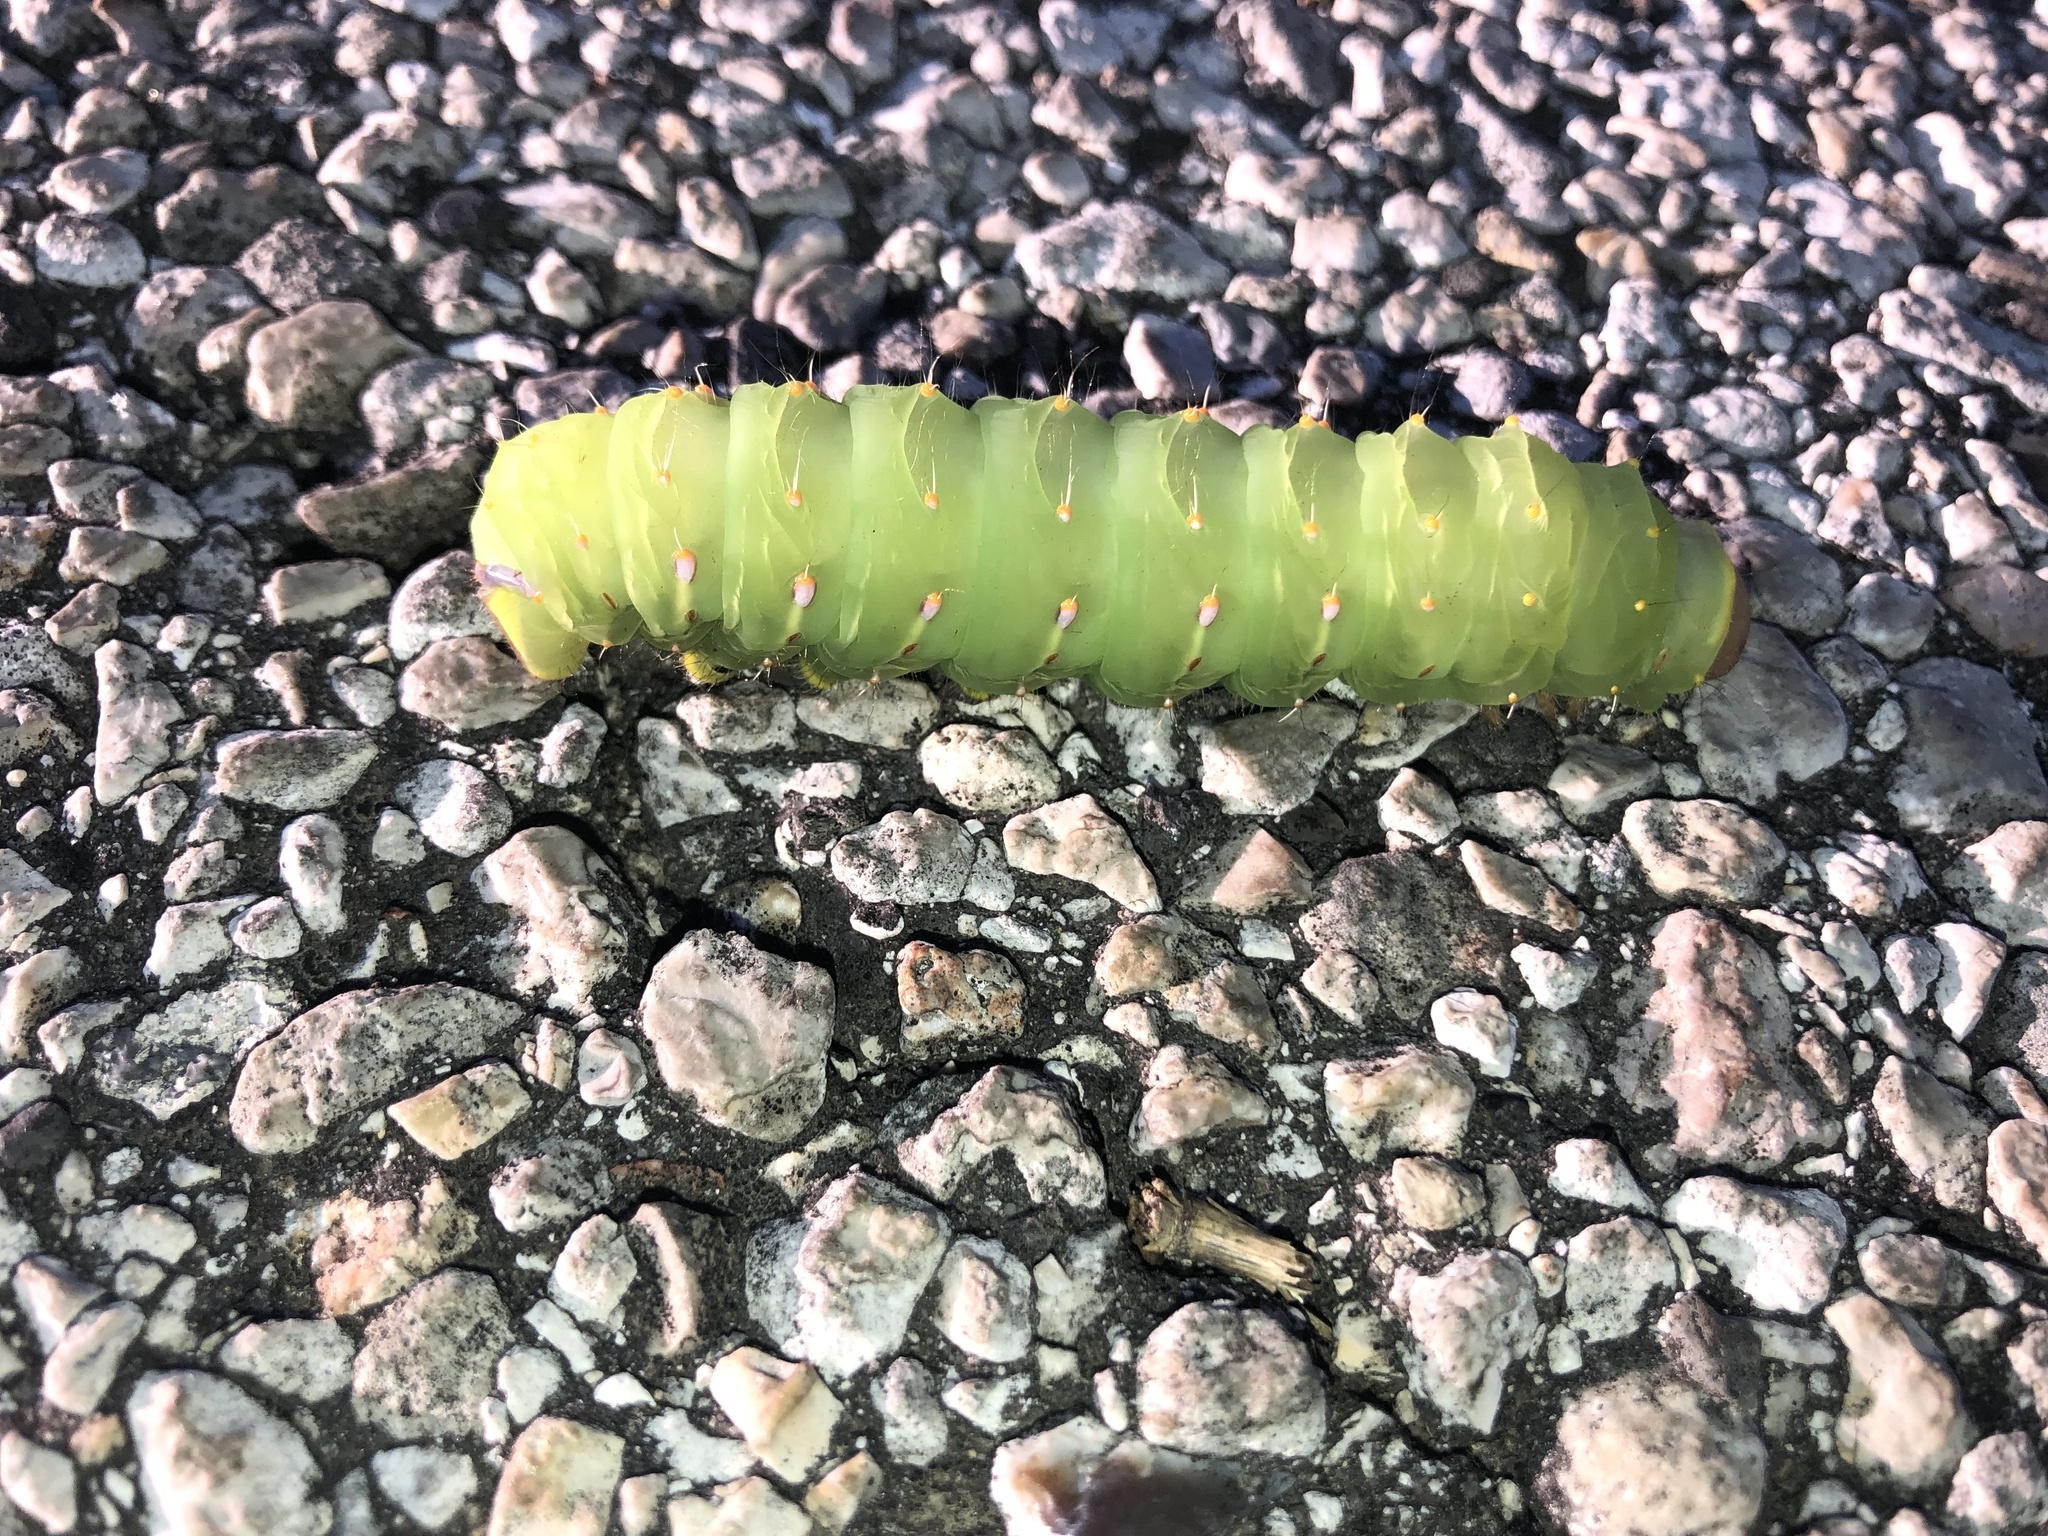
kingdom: Animalia
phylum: Arthropoda
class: Insecta
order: Lepidoptera
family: Saturniidae
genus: Antheraea
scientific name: Antheraea polyphemus
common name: Polyphemus moth
